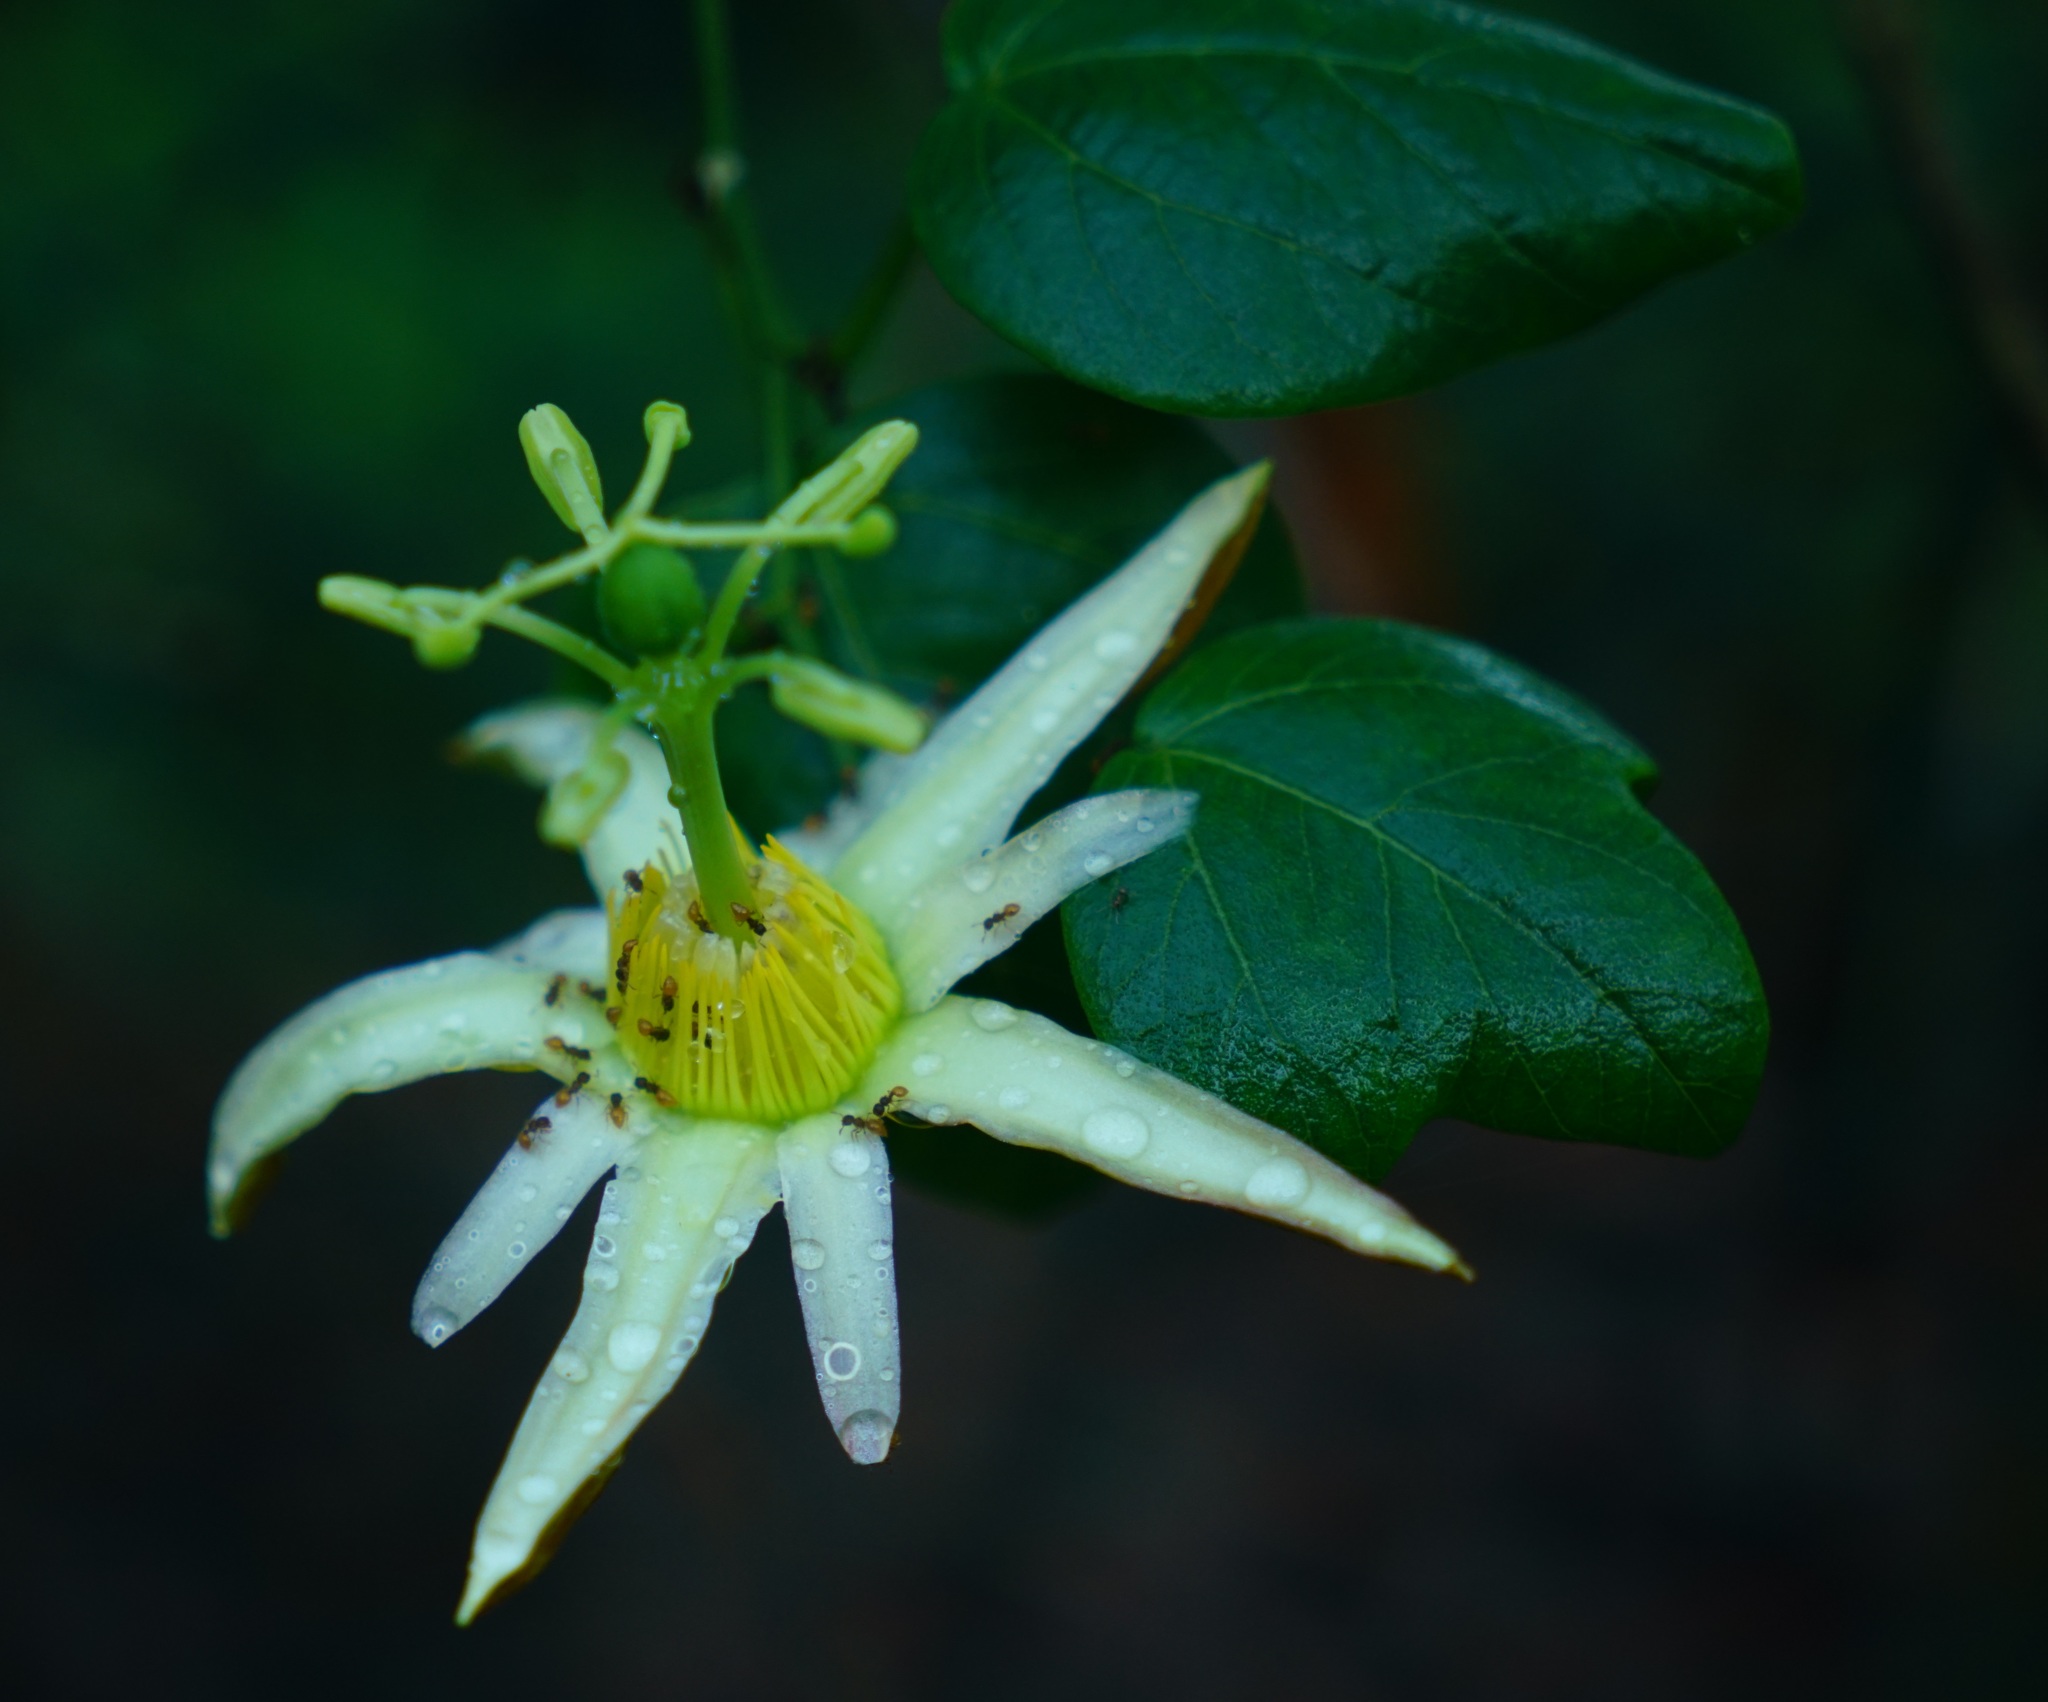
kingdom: Plantae
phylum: Tracheophyta
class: Magnoliopsida
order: Malpighiales
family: Passifloraceae
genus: Passiflora
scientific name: Passiflora herbertiana
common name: Yellow passionflower
